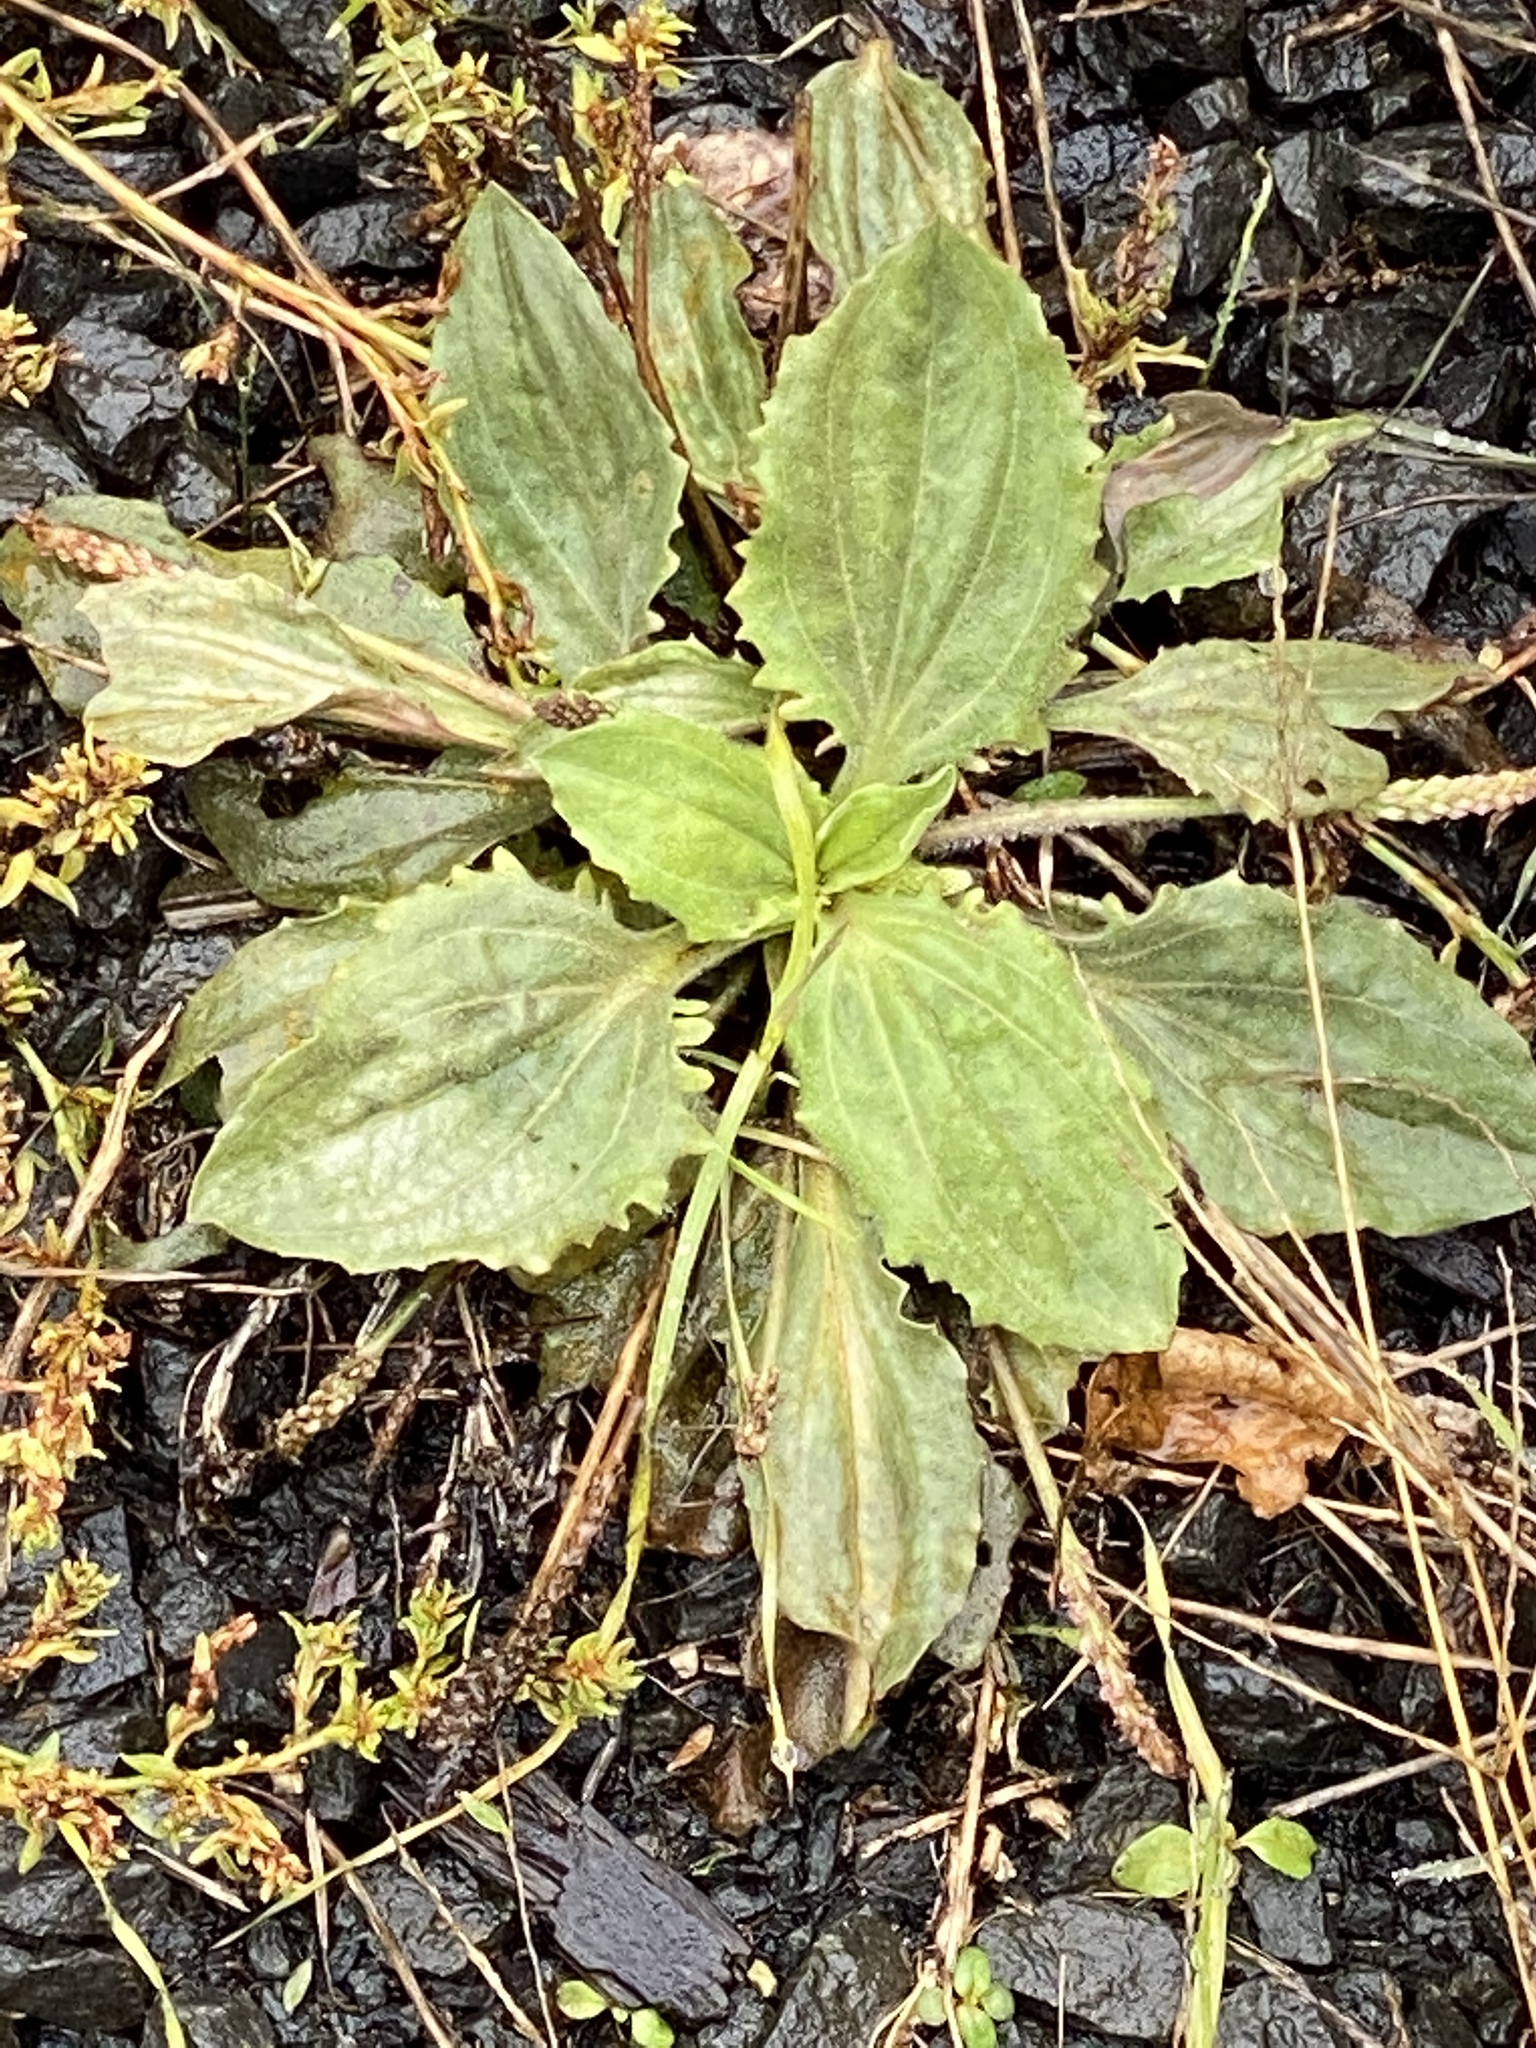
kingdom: Plantae
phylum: Tracheophyta
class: Magnoliopsida
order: Lamiales
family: Plantaginaceae
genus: Plantago
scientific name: Plantago major
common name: Common plantain
